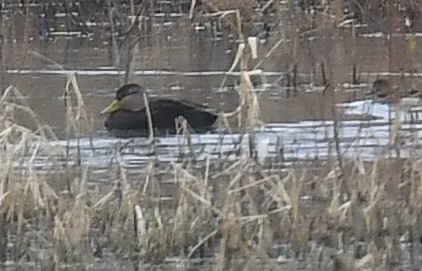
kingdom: Animalia
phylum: Chordata
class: Aves
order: Anseriformes
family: Anatidae
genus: Anas
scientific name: Anas rubripes
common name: American black duck
